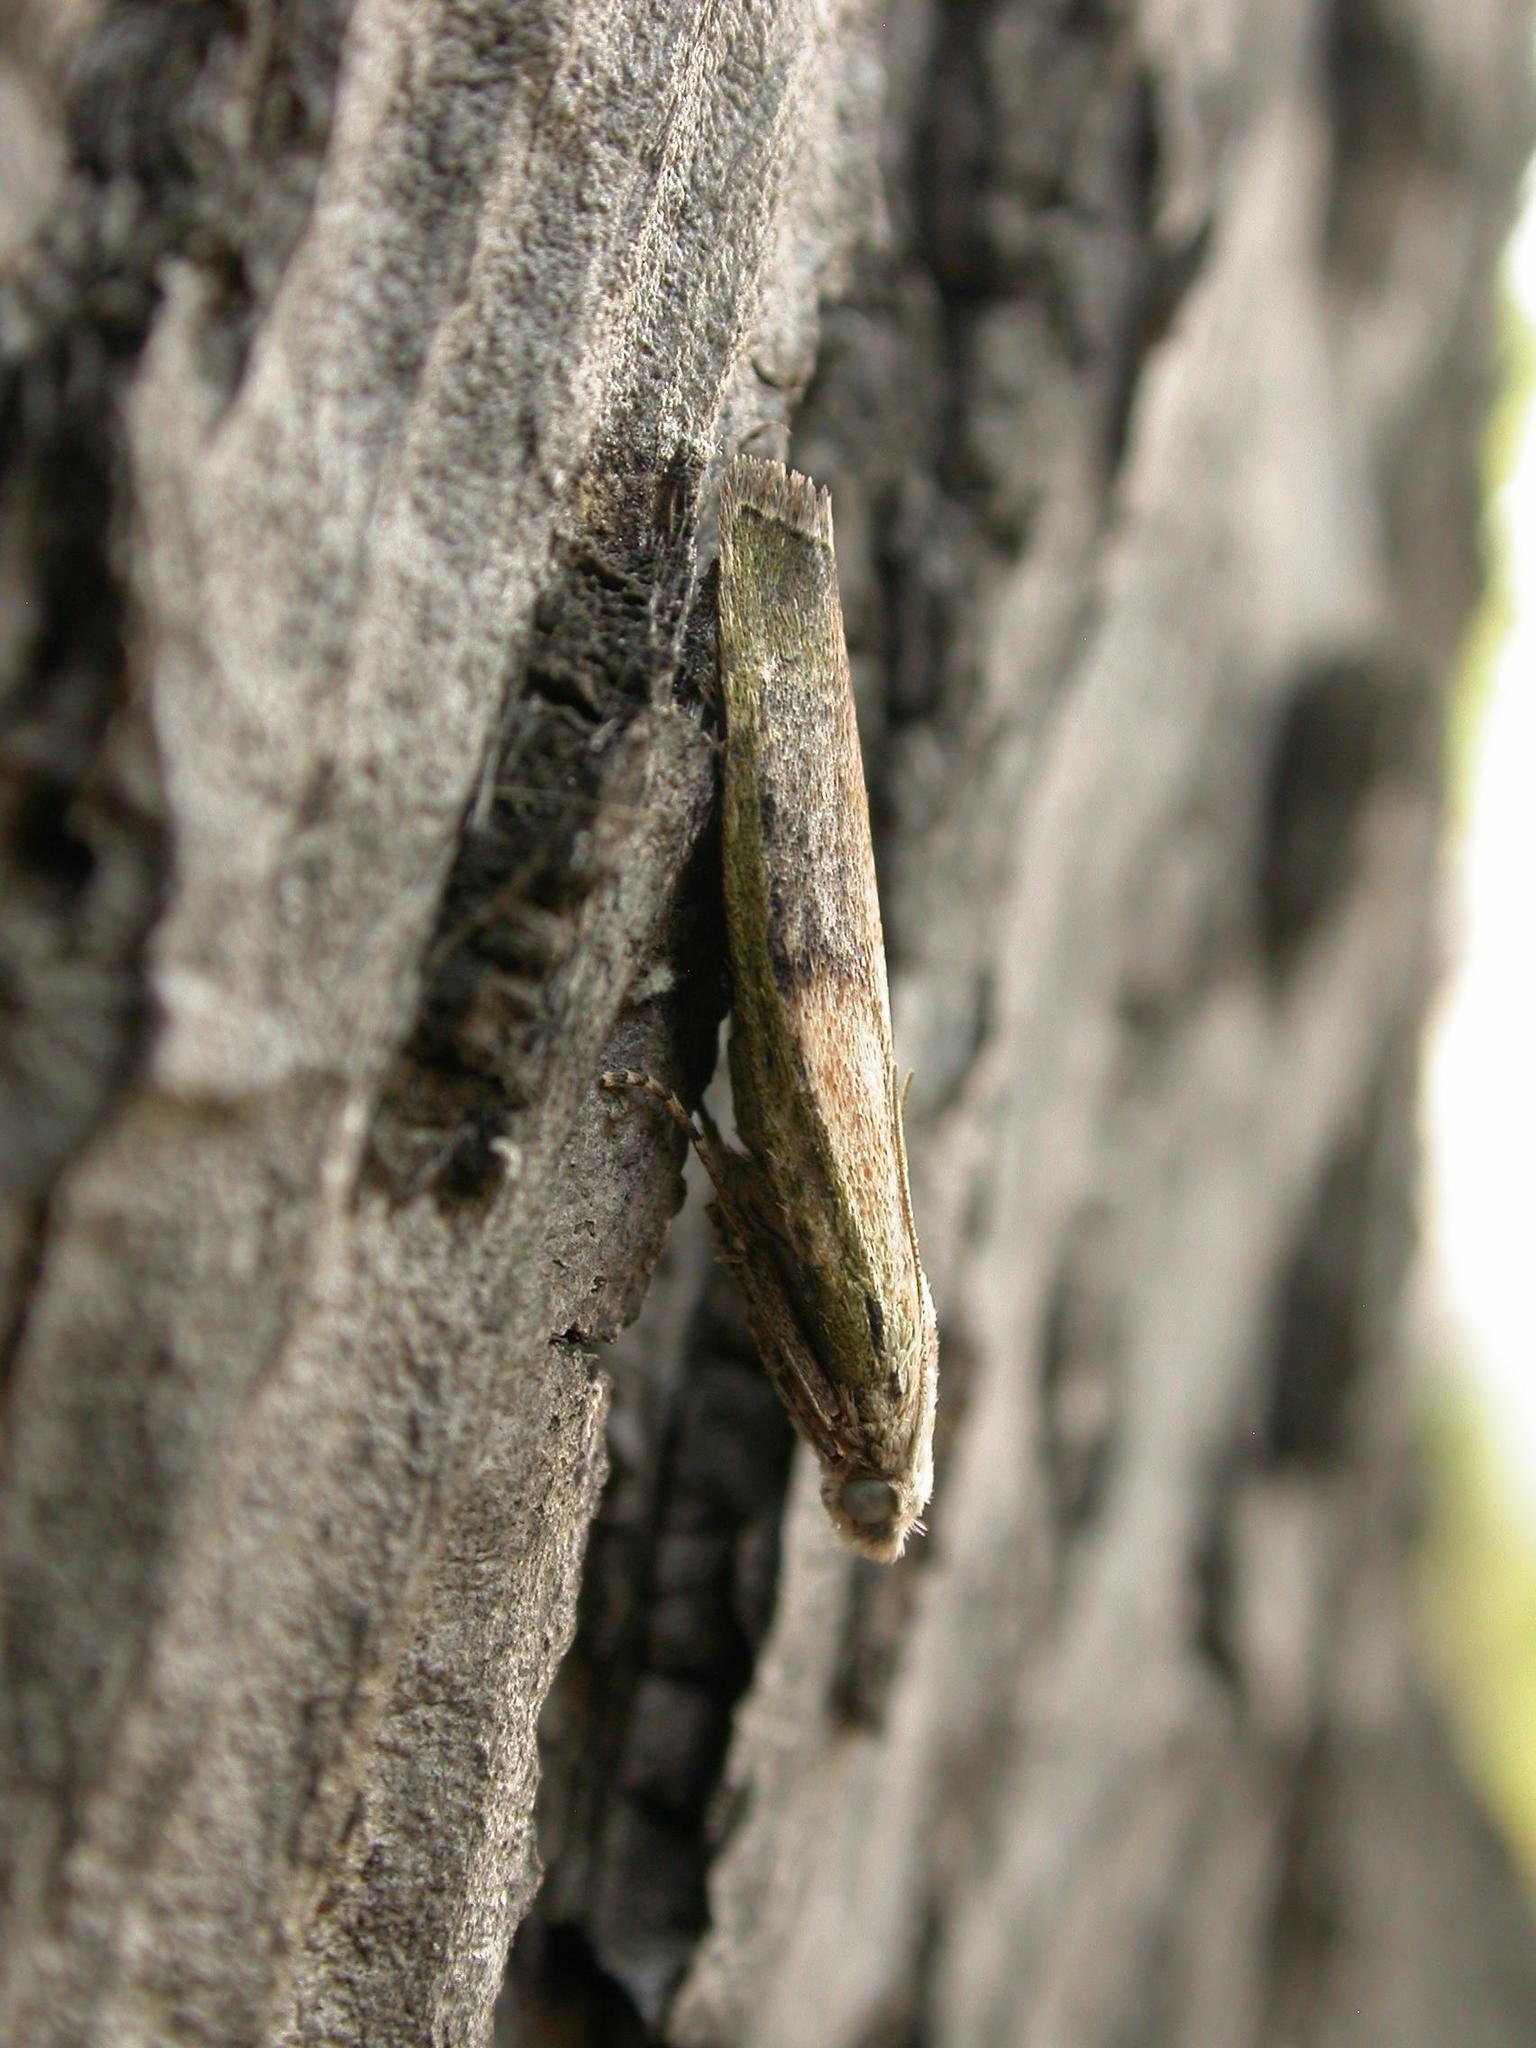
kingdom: Animalia
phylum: Arthropoda
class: Insecta
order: Lepidoptera
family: Pyralidae
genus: Aphomia
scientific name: Aphomia sociella
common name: Bee moth
